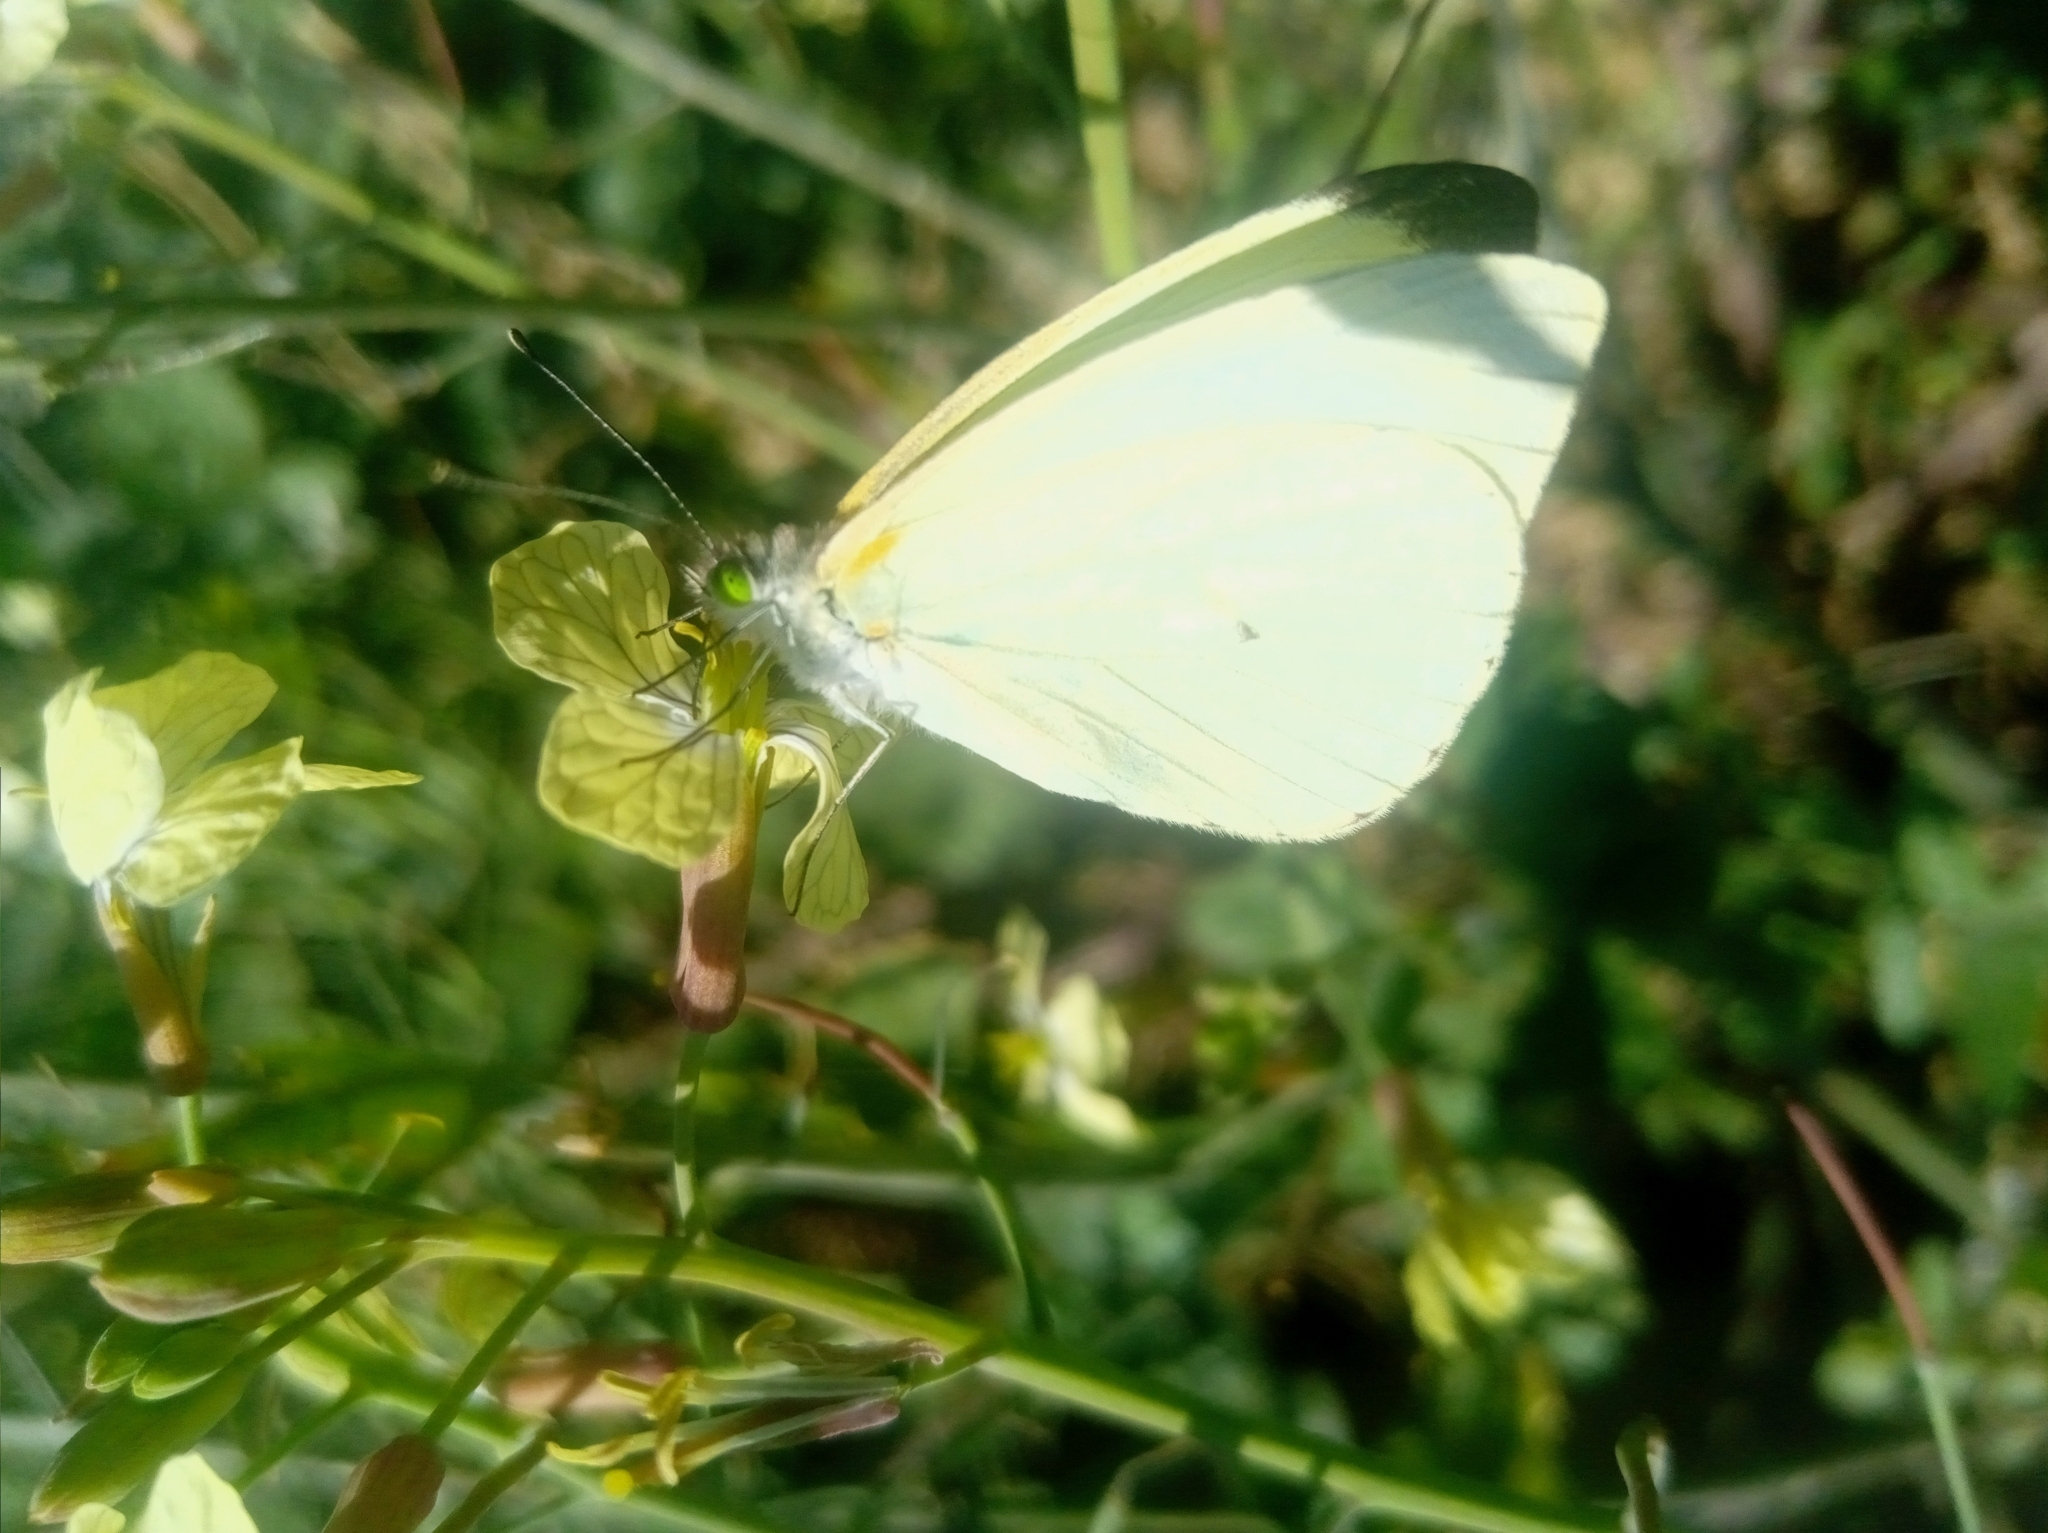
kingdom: Animalia
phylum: Arthropoda
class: Insecta
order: Lepidoptera
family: Pieridae
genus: Leptophobia
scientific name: Leptophobia aripa
